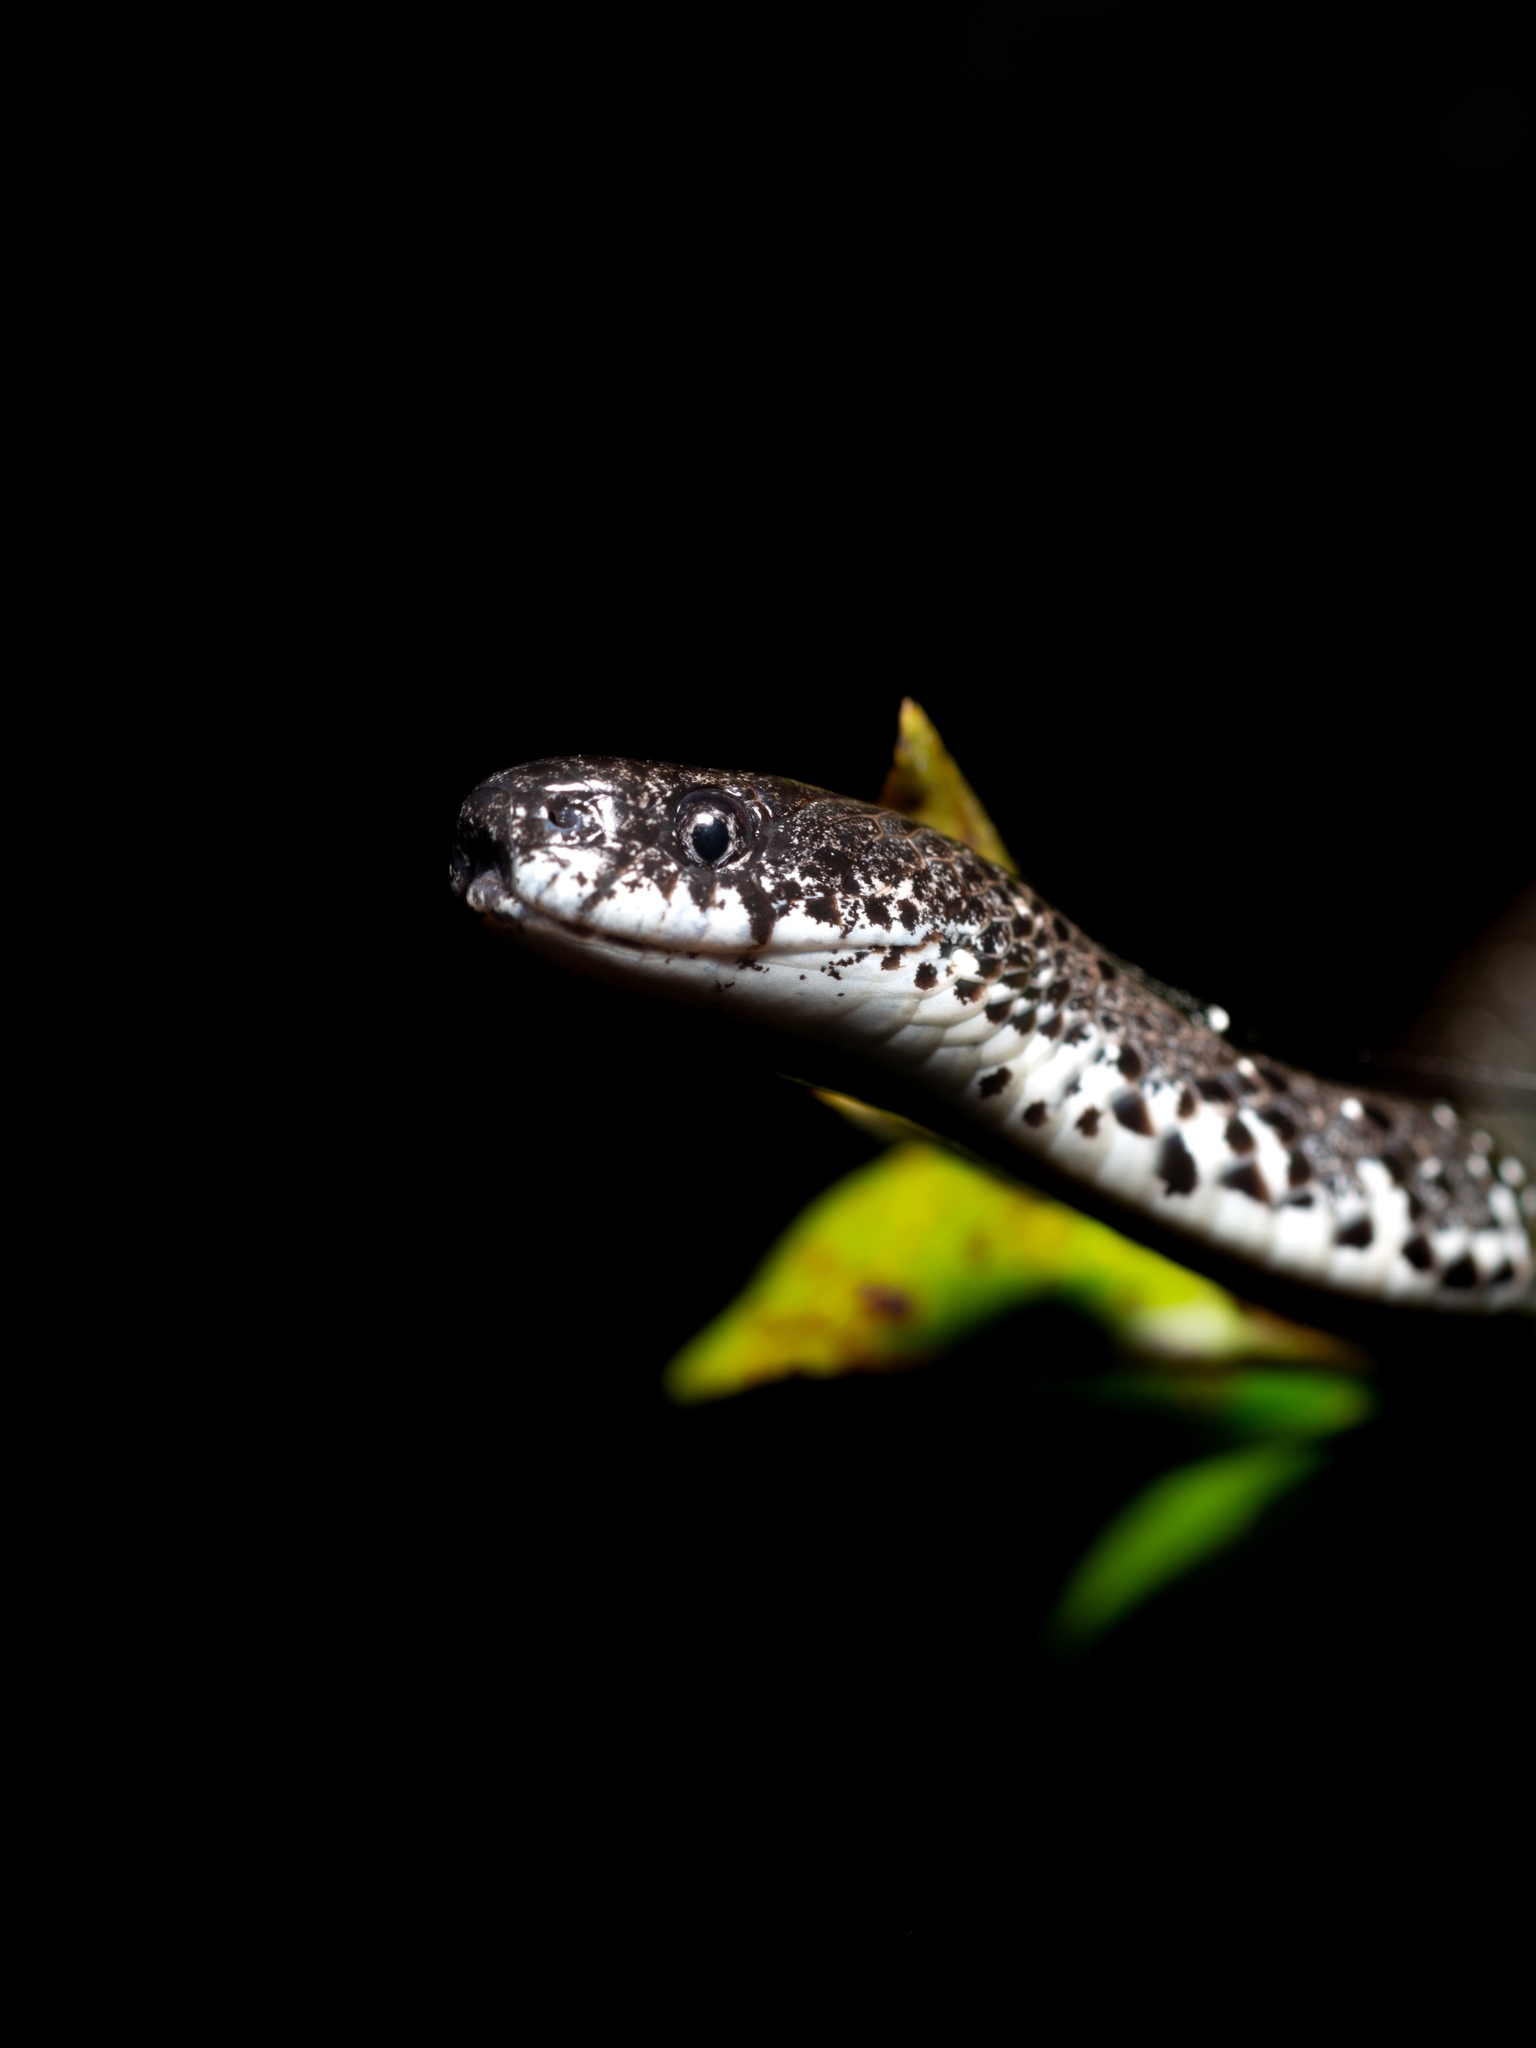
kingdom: Animalia
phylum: Chordata
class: Squamata
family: Pareidae
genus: Pareas
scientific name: Pareas margaritophorus
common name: Mountain slug snake
